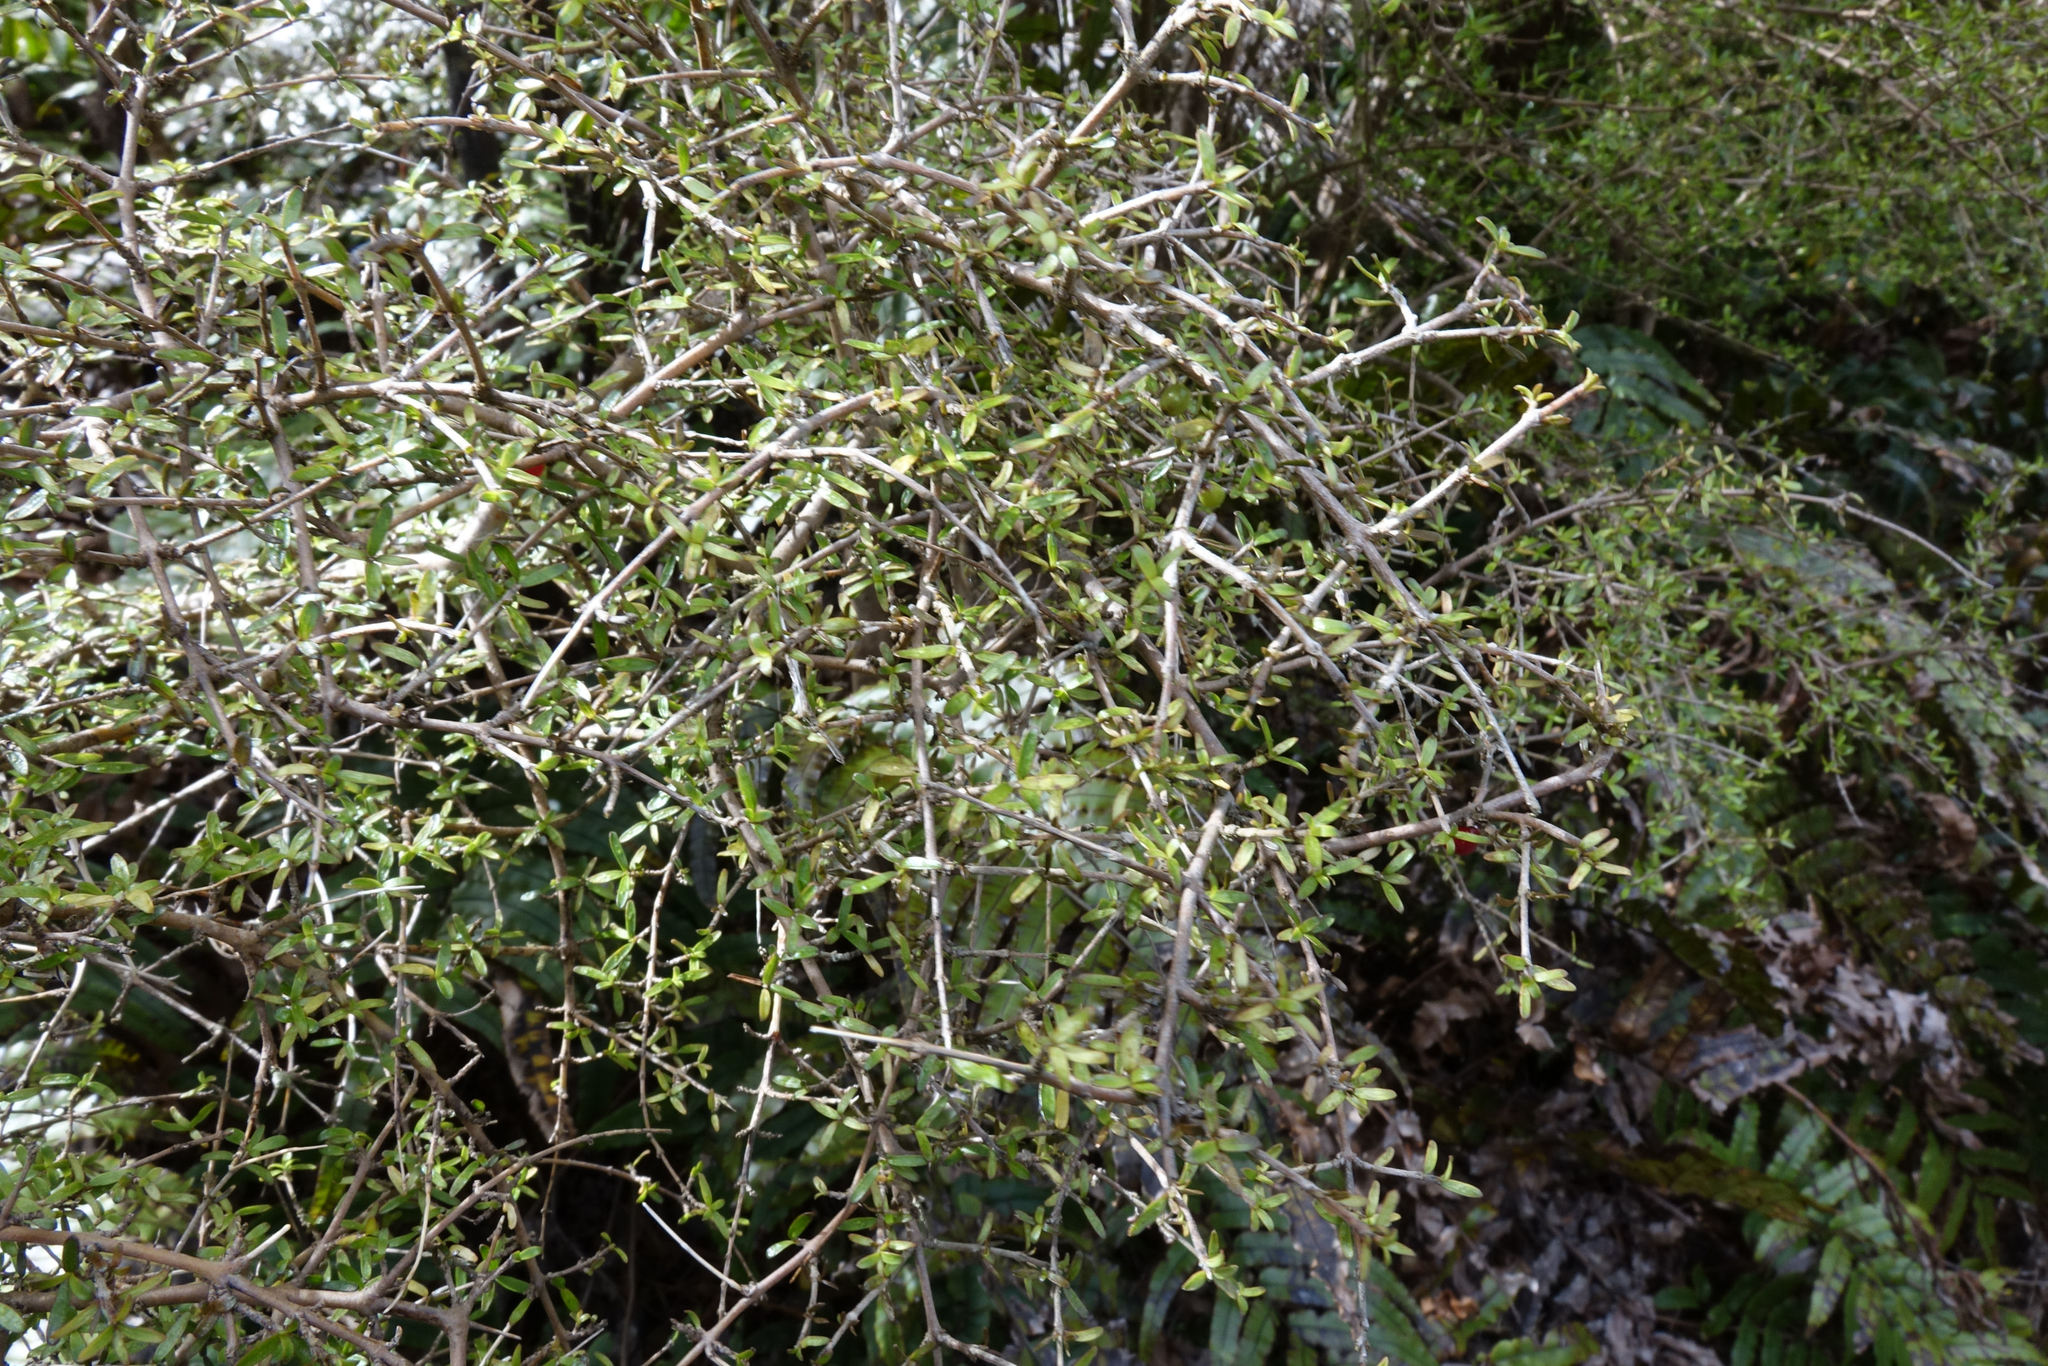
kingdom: Plantae
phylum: Tracheophyta
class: Magnoliopsida
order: Gentianales
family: Rubiaceae
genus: Coprosma
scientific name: Coprosma decurva
